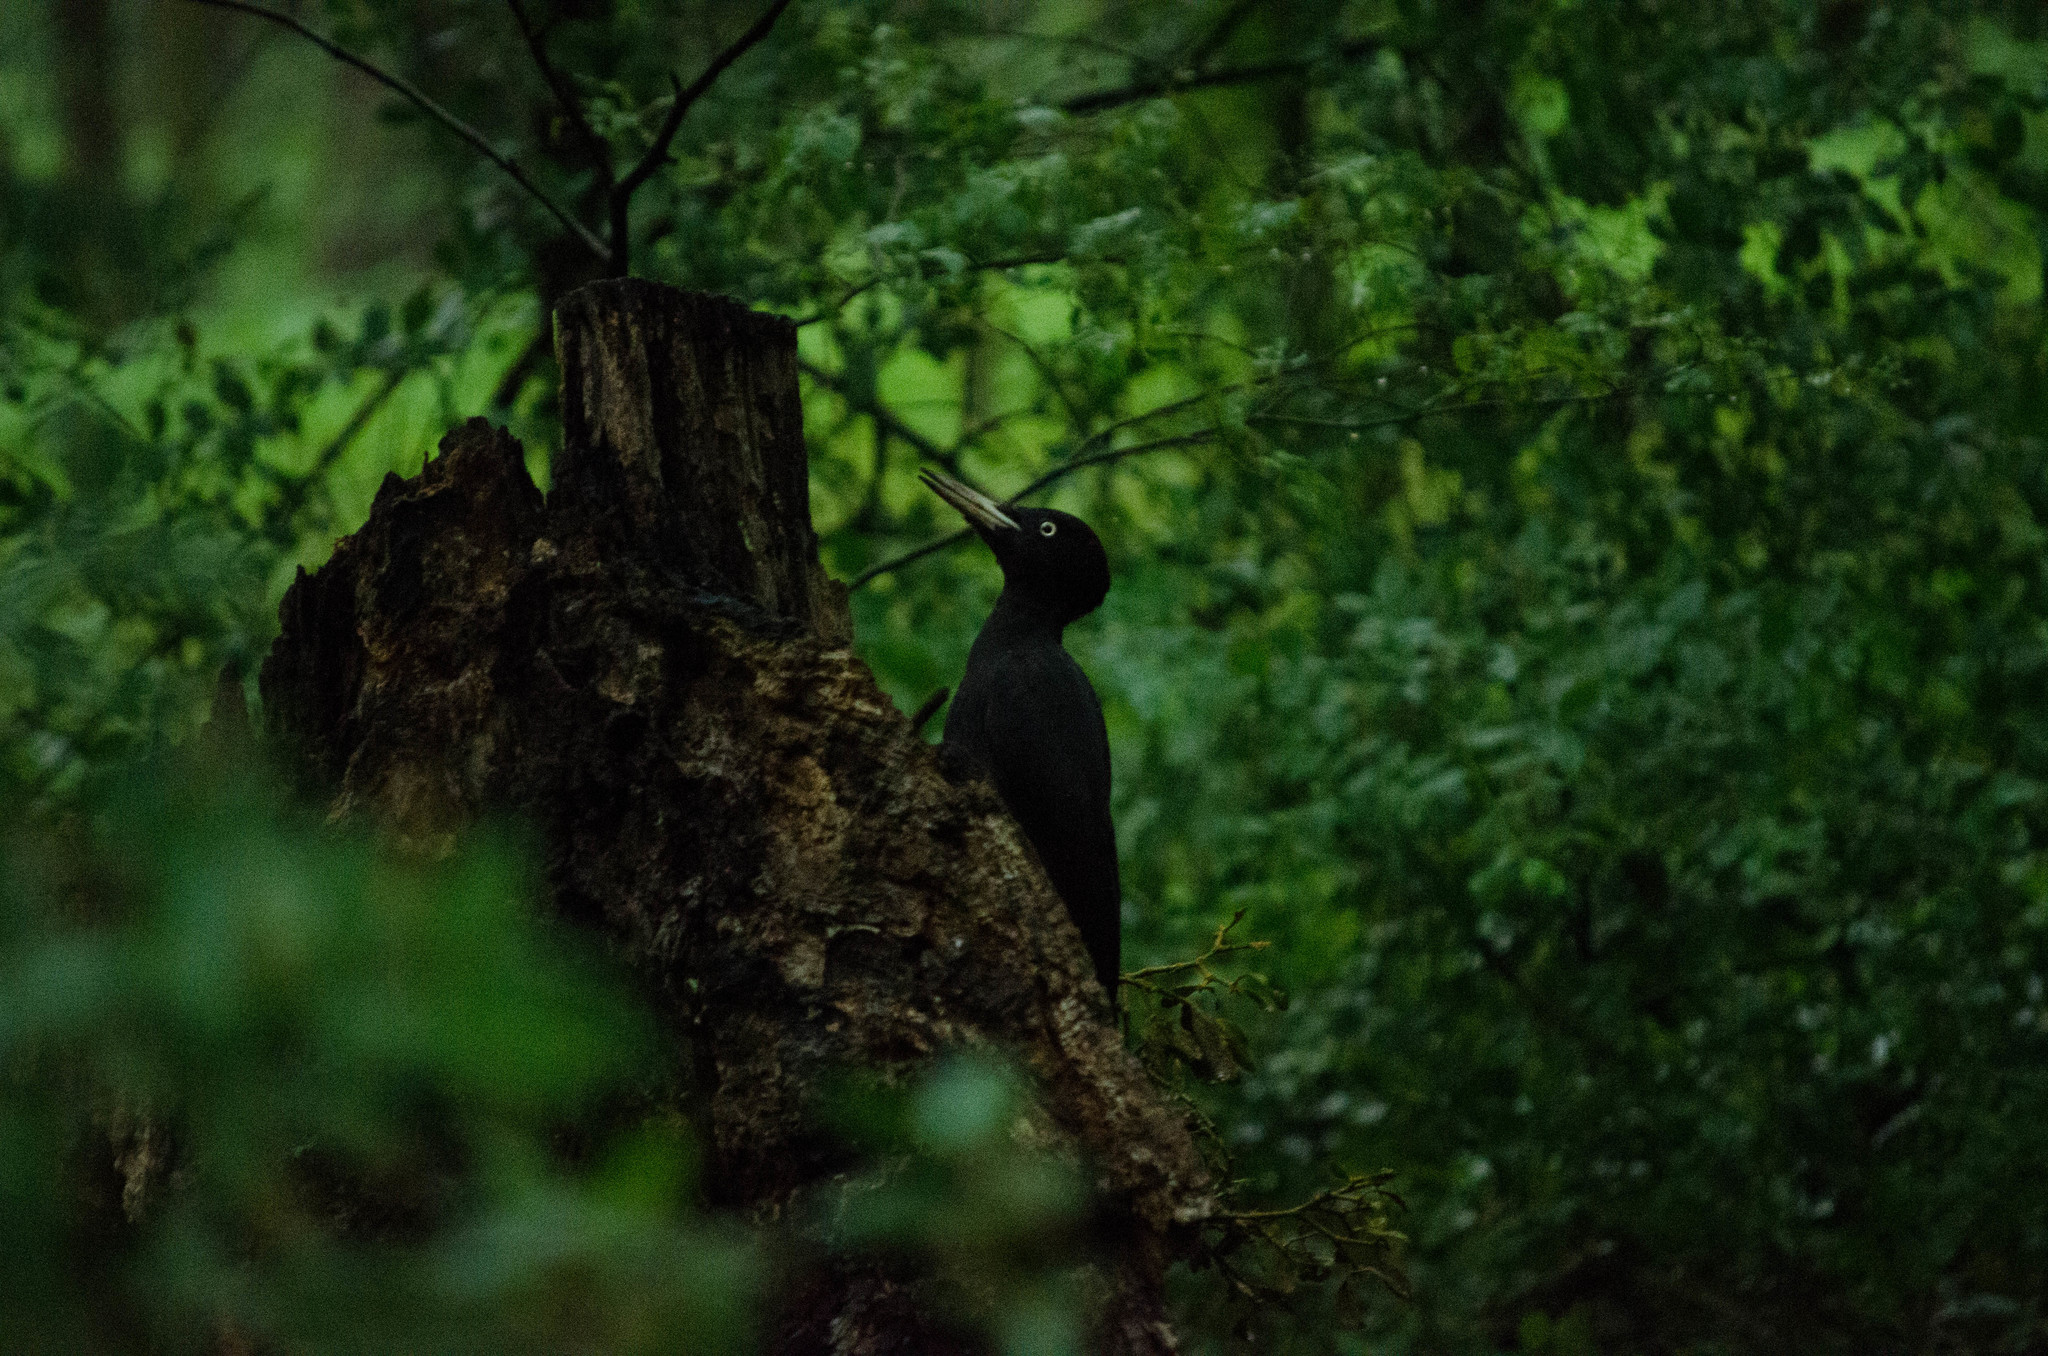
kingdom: Animalia
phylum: Chordata
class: Aves
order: Piciformes
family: Picidae
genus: Dryocopus
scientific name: Dryocopus martius
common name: Black woodpecker
